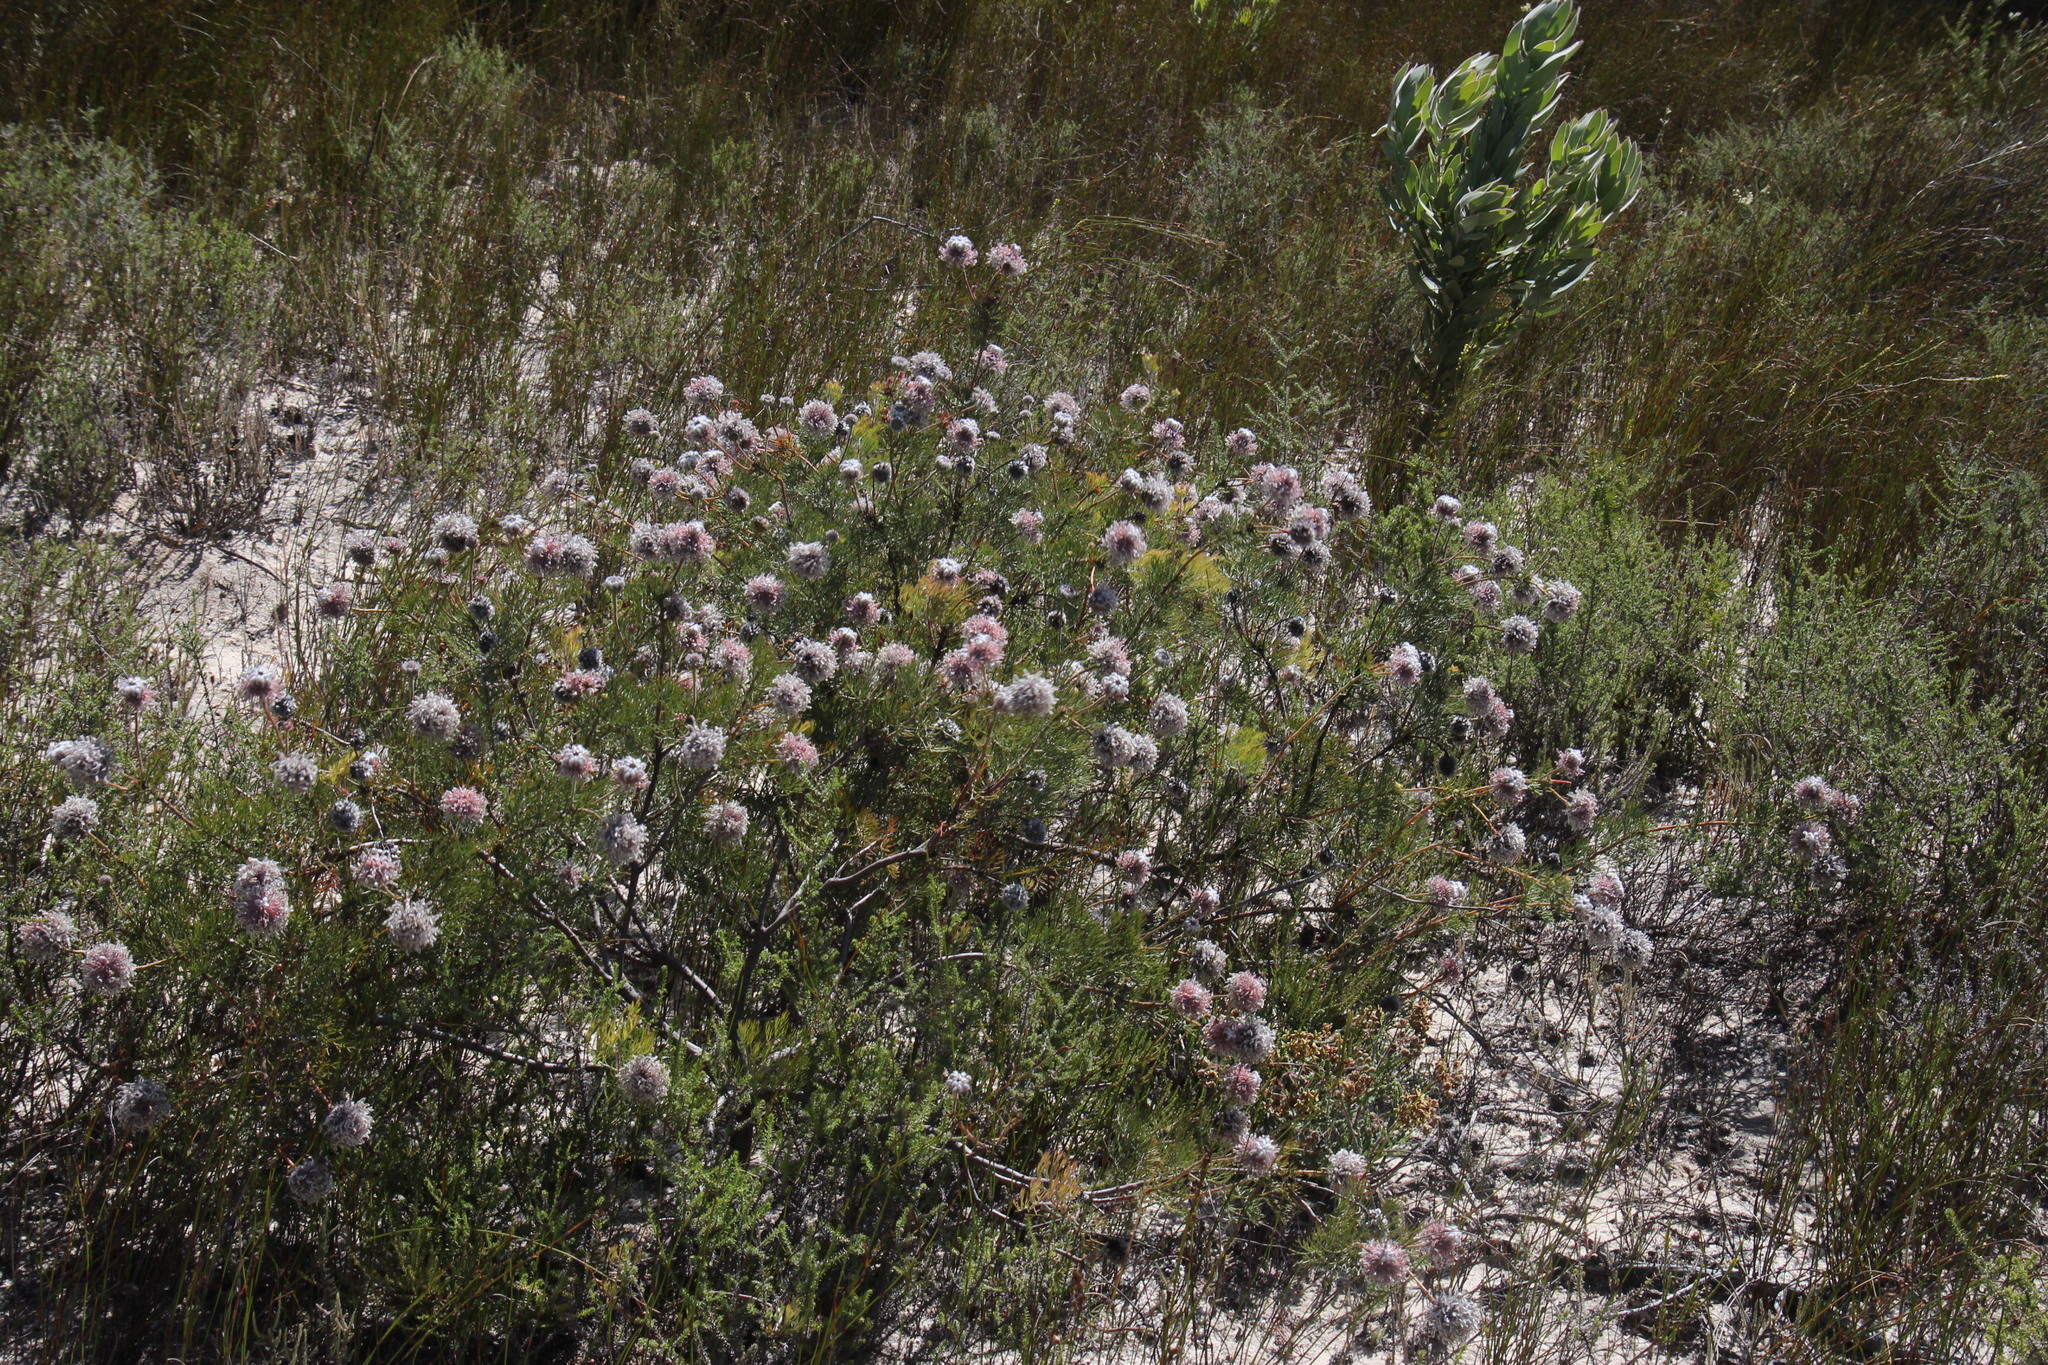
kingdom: Plantae
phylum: Tracheophyta
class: Magnoliopsida
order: Proteales
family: Proteaceae
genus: Serruria
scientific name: Serruria pedunculata
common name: Fan-leaf spiderhead
